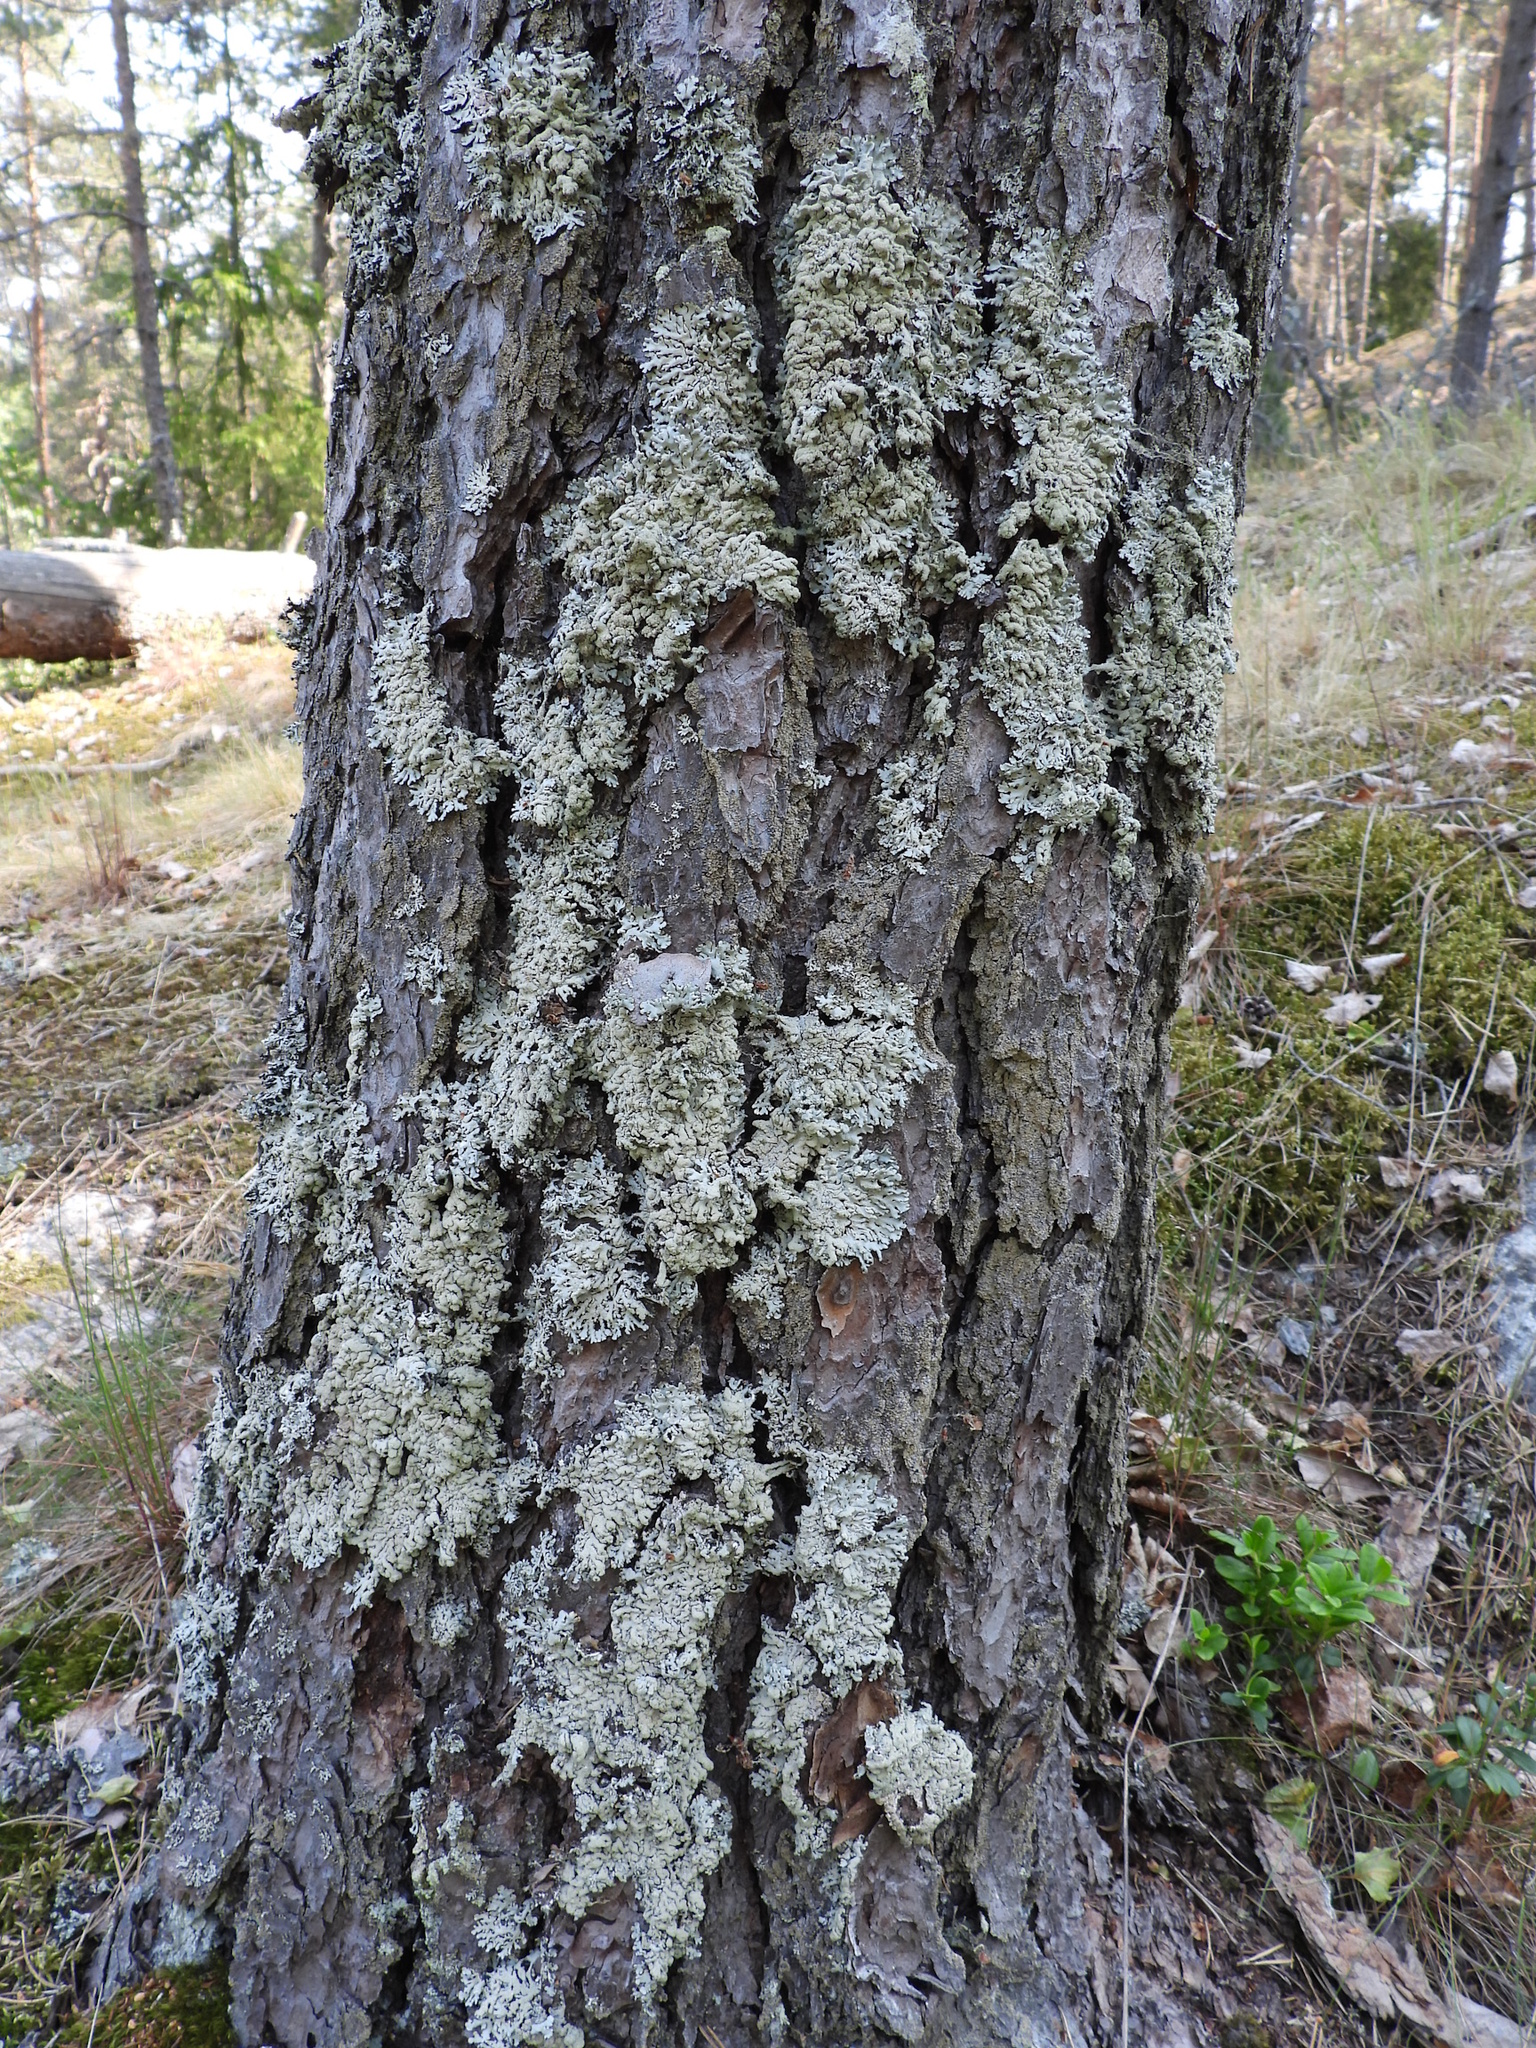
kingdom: Fungi
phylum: Ascomycota
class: Lecanoromycetes
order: Lecanorales
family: Parmeliaceae
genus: Hypogymnia
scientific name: Hypogymnia farinacea
